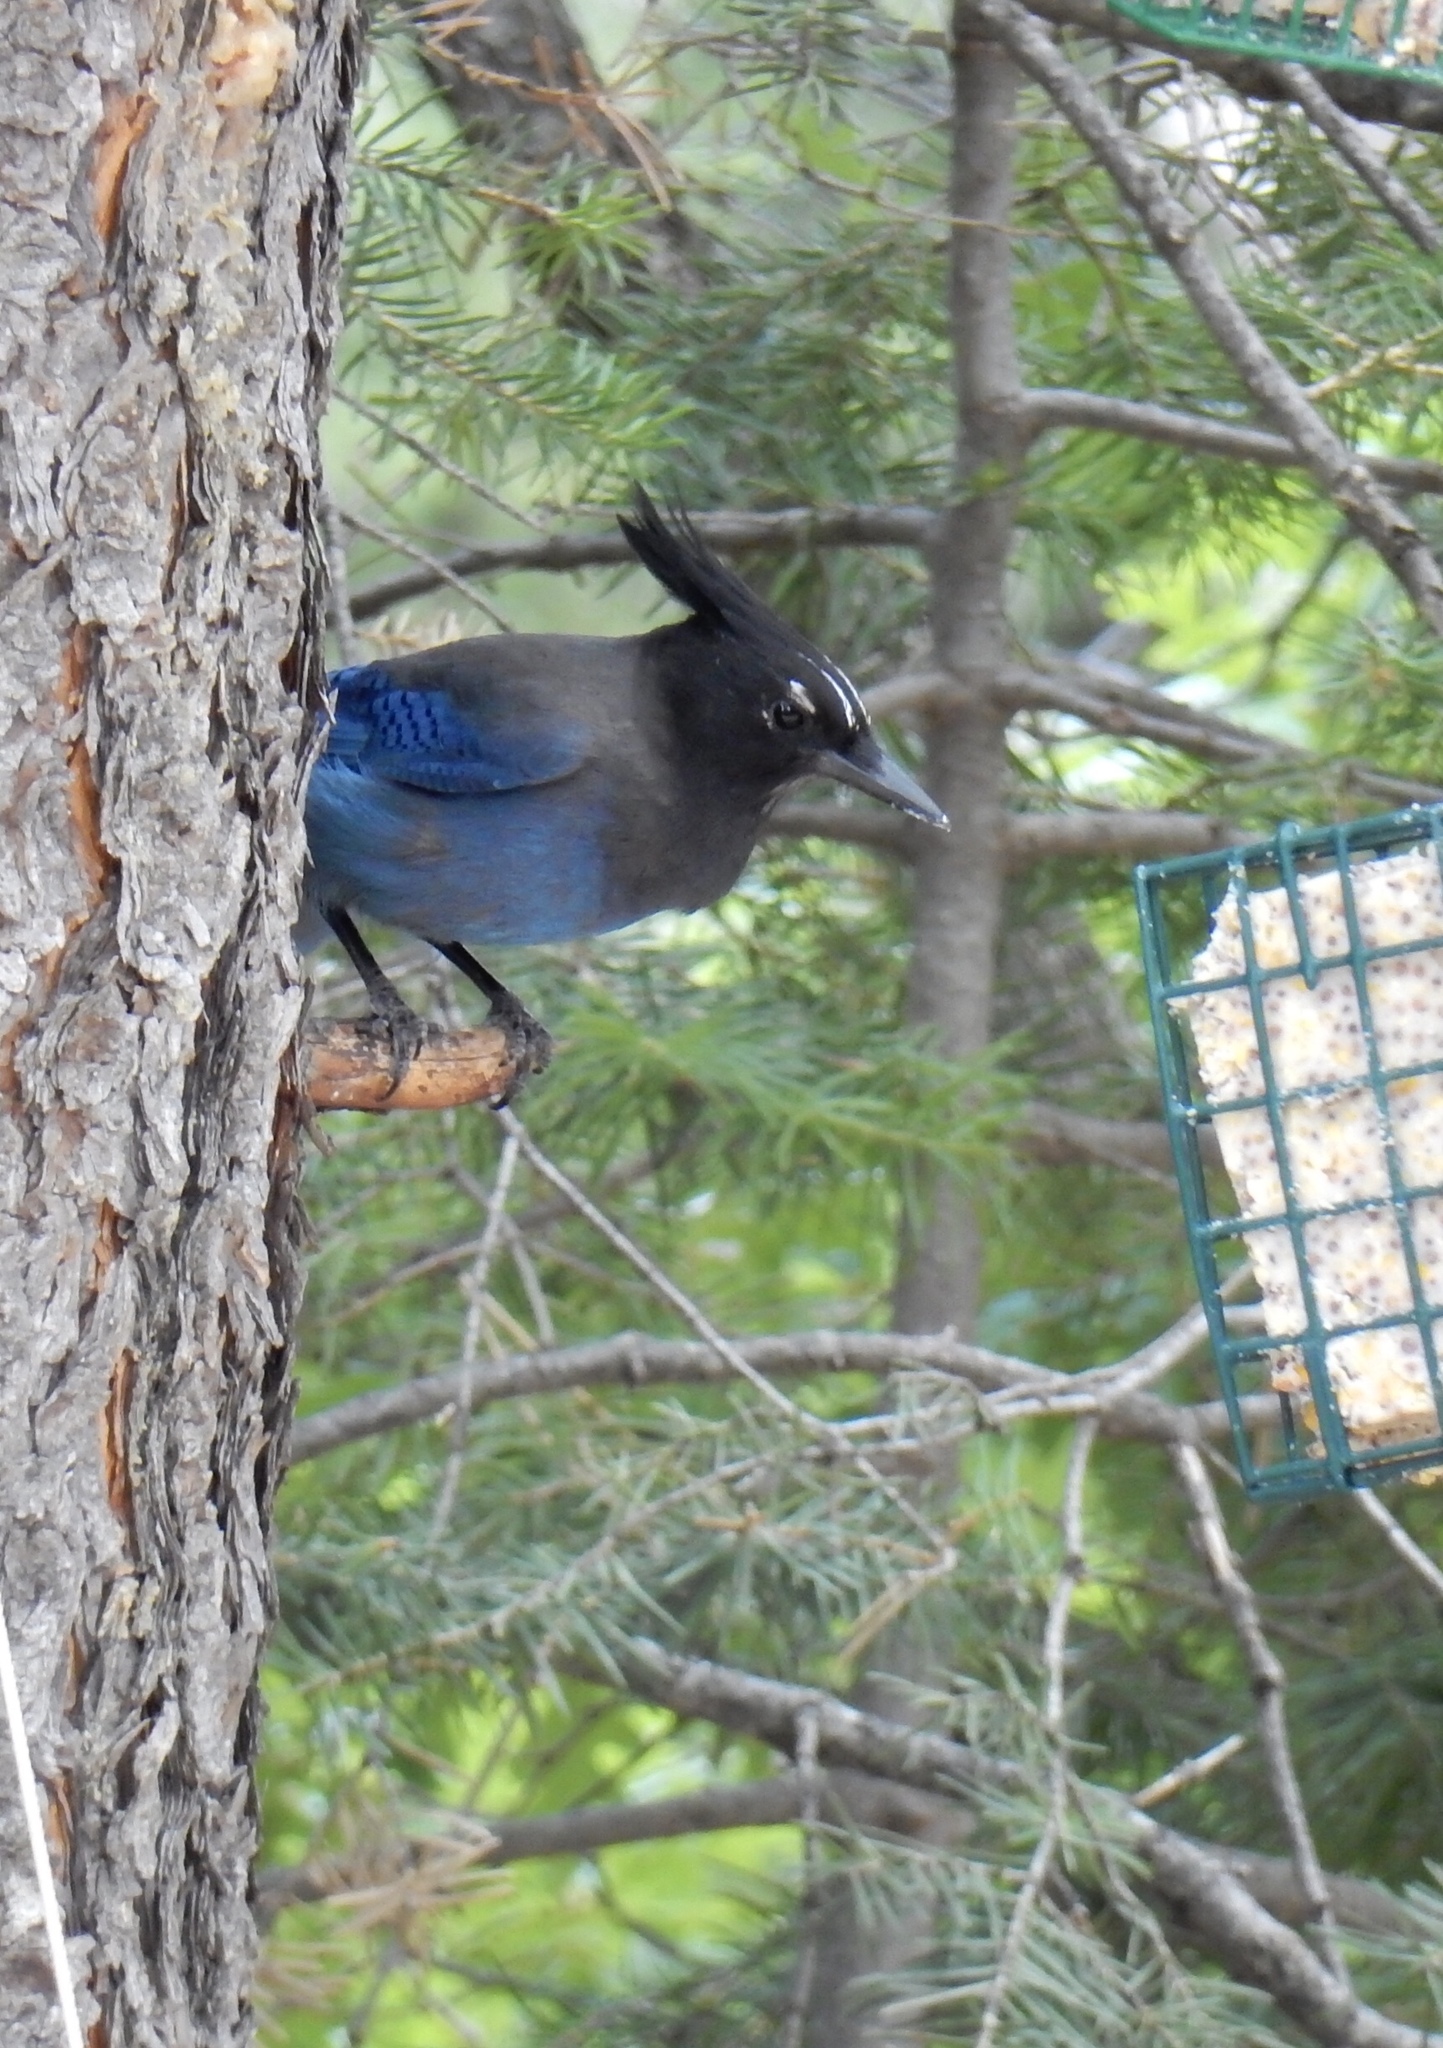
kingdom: Animalia
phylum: Chordata
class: Aves
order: Passeriformes
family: Corvidae
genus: Cyanocitta
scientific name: Cyanocitta stelleri
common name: Steller's jay
